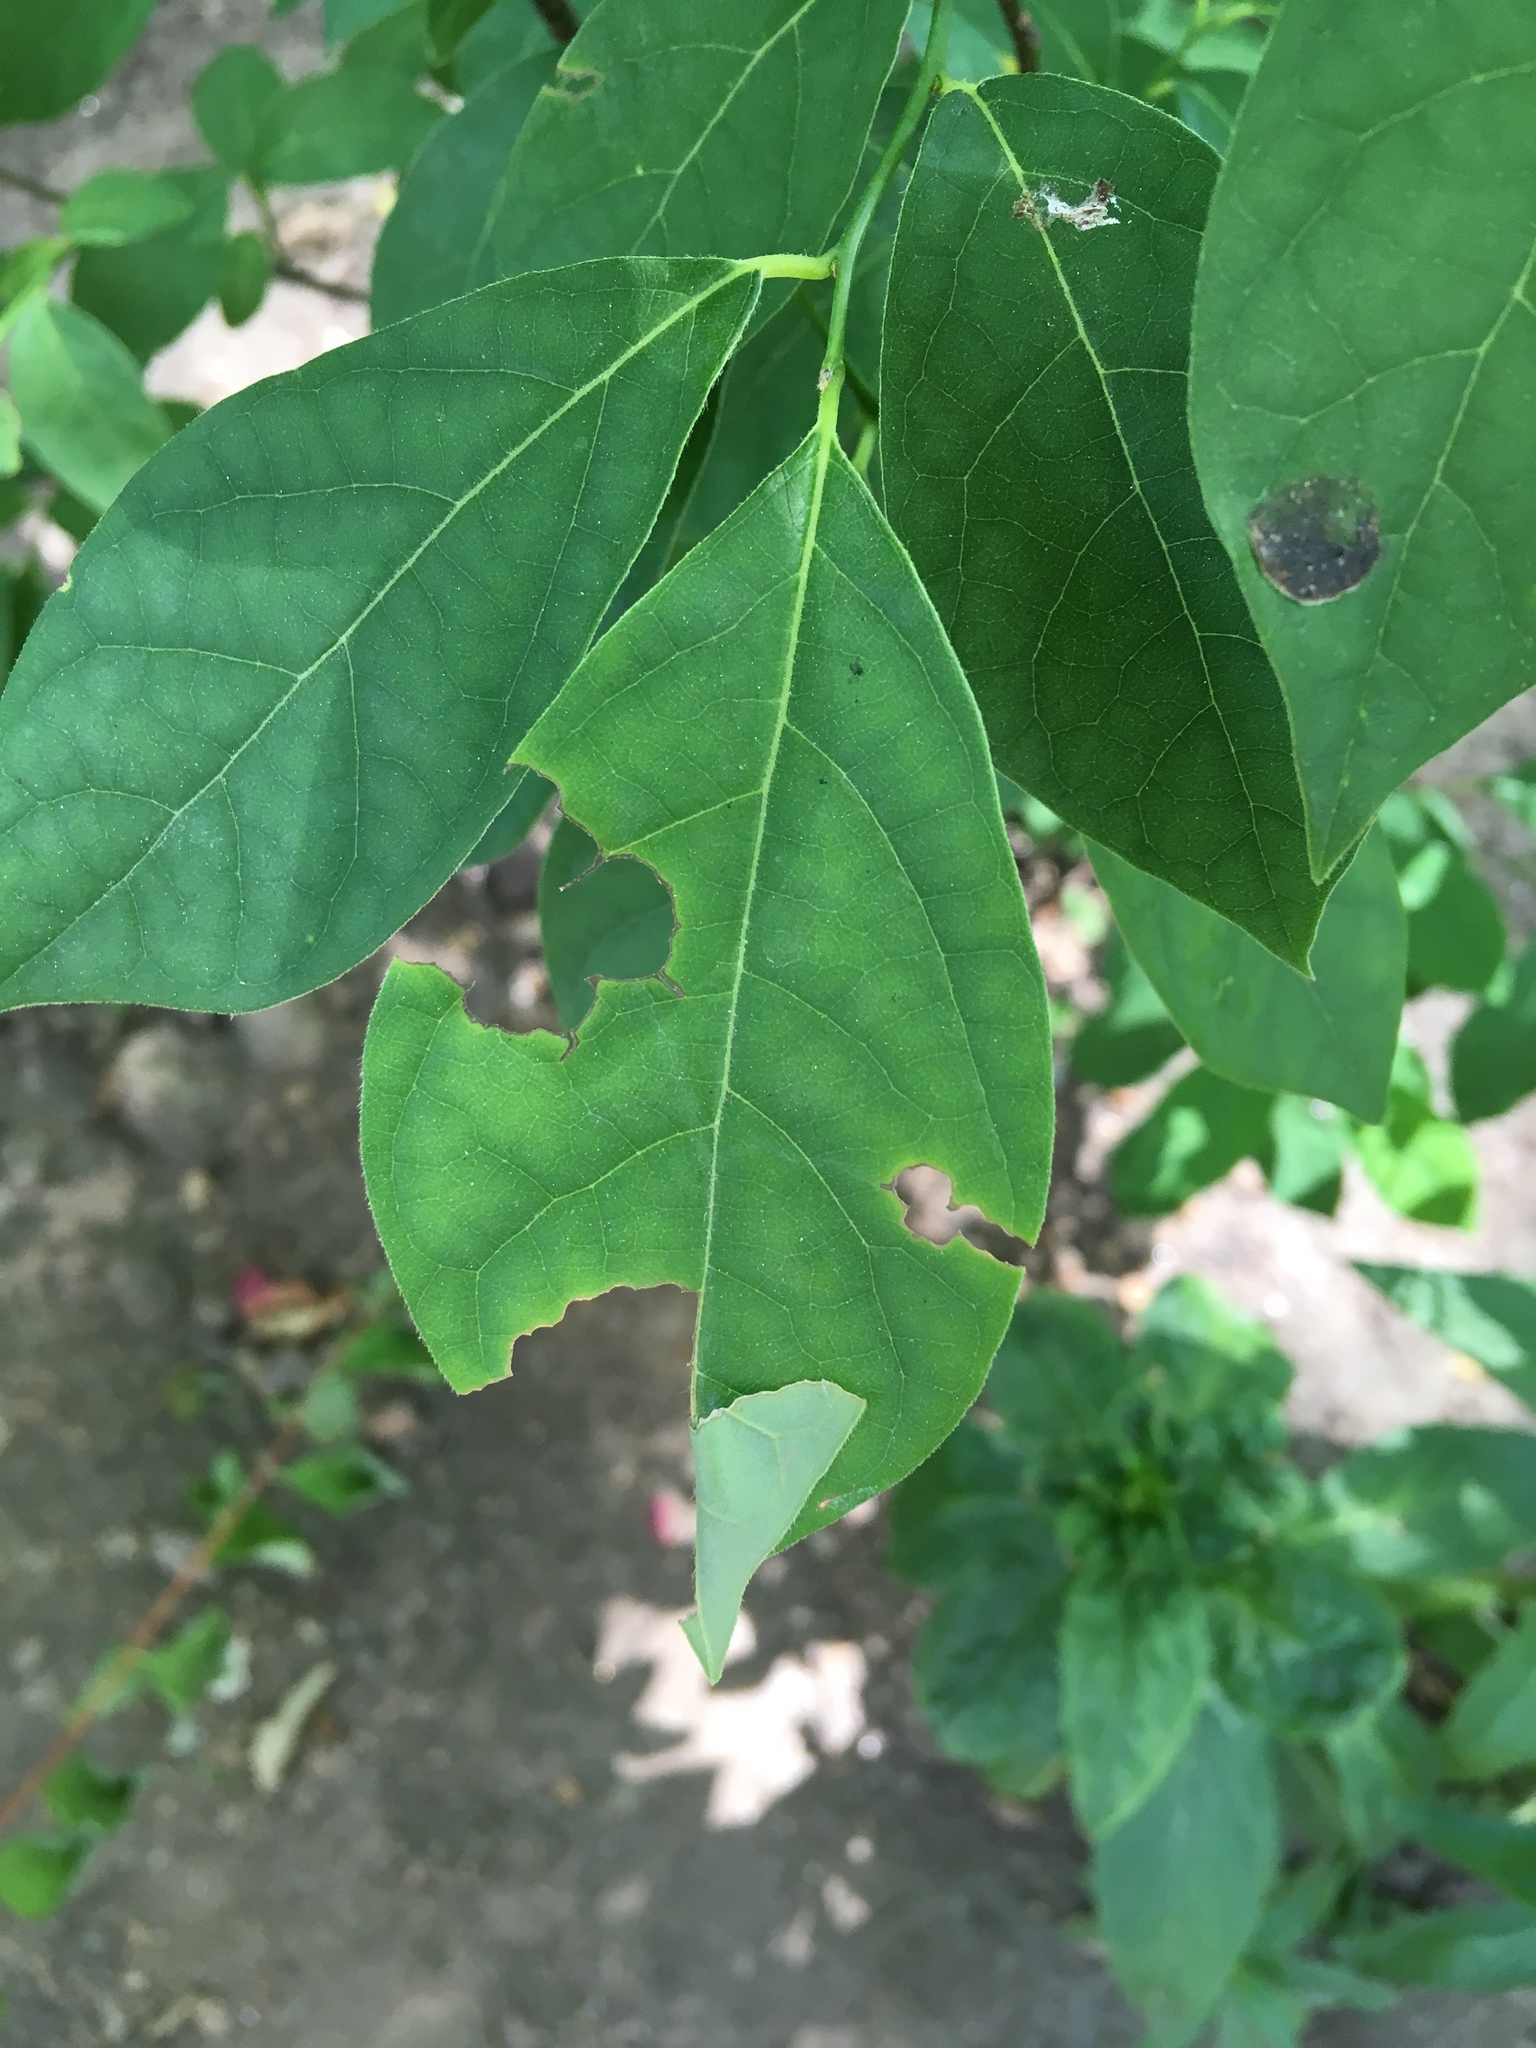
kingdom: Plantae
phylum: Tracheophyta
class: Magnoliopsida
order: Laurales
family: Lauraceae
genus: Lindera
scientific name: Lindera benzoin
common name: Spicebush
